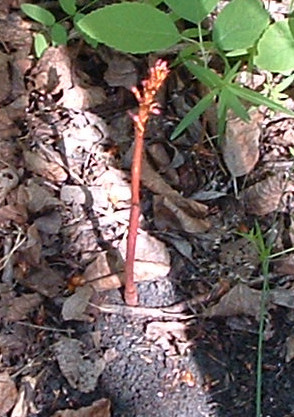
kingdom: Plantae
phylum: Tracheophyta
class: Liliopsida
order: Asparagales
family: Orchidaceae
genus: Corallorhiza
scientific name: Corallorhiza maculata
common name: Spotted coralroot
